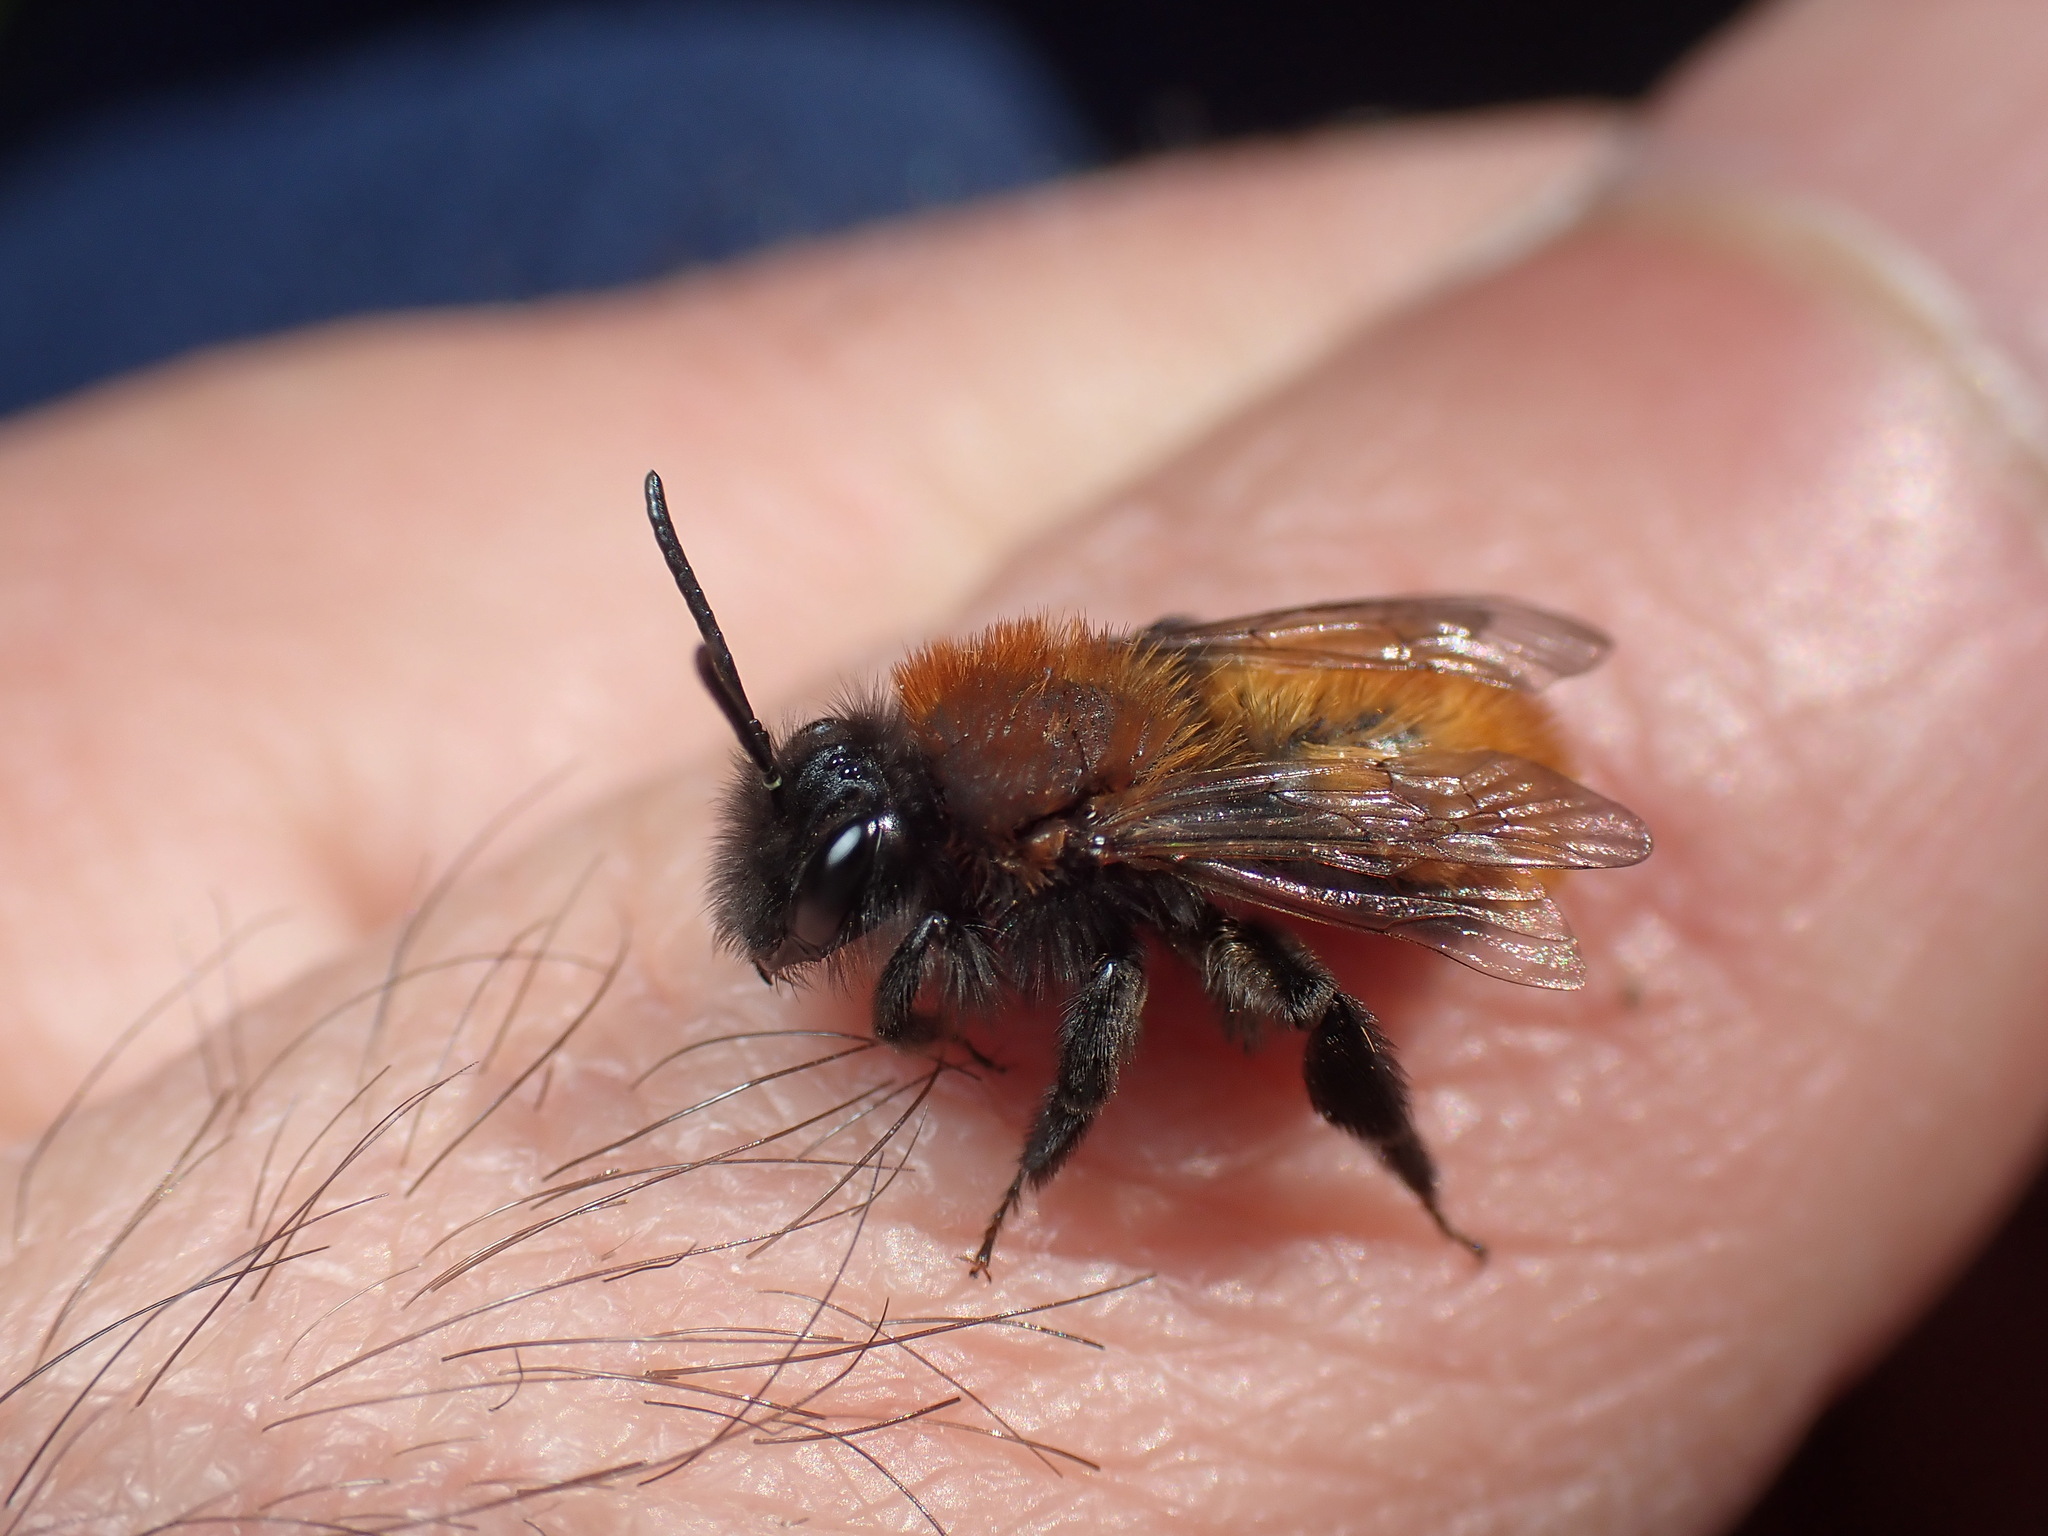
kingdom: Animalia
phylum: Arthropoda
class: Insecta
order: Hymenoptera
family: Andrenidae
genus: Andrena
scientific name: Andrena fulva
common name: Tawny mining bee
